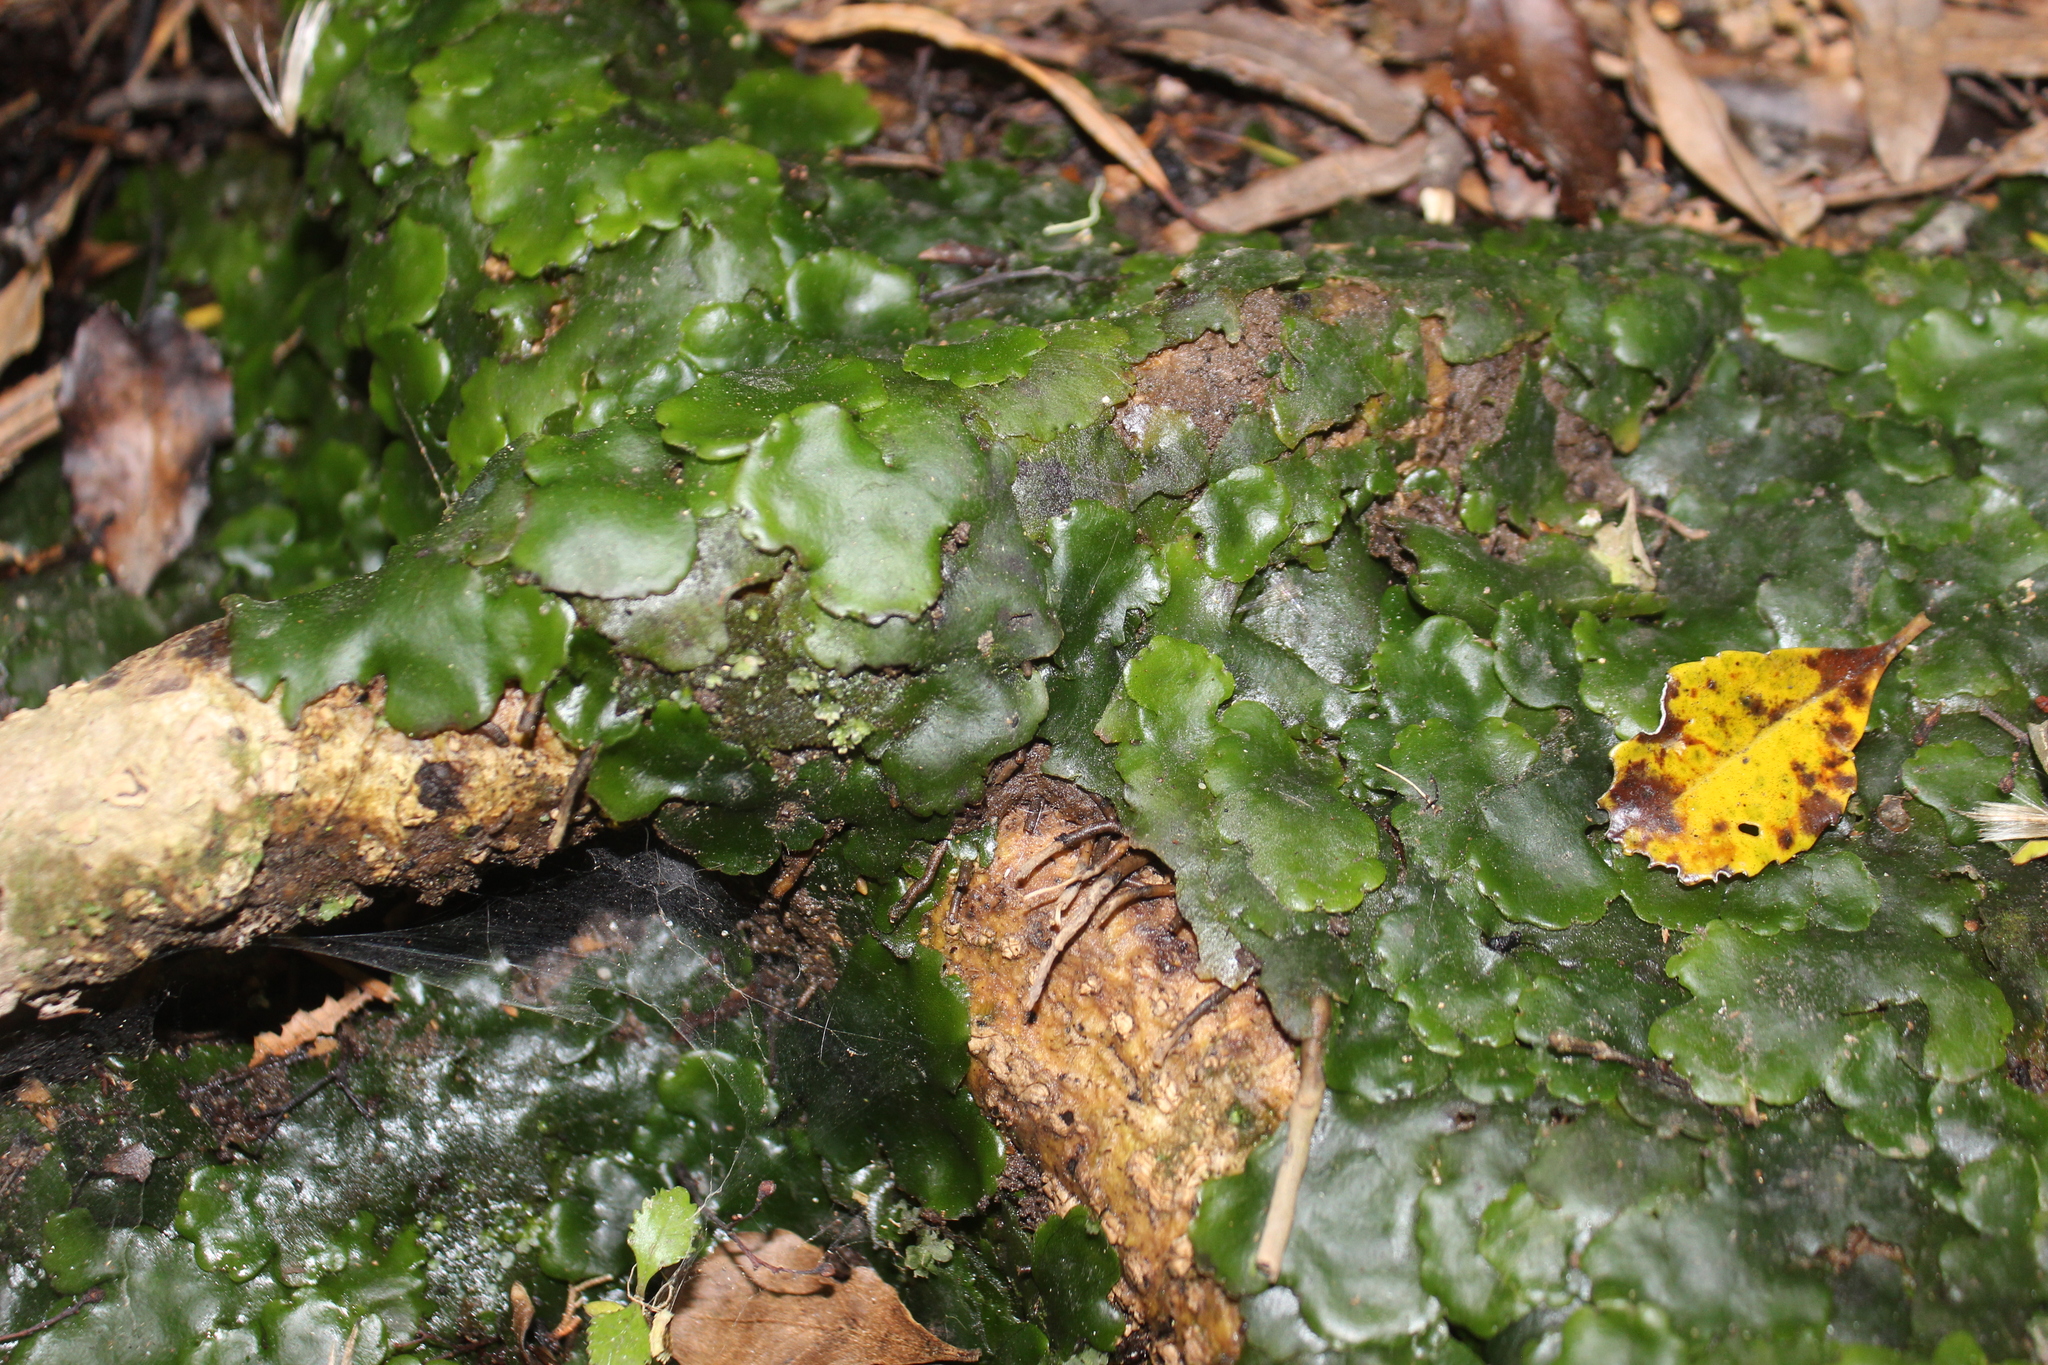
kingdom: Plantae
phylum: Marchantiophyta
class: Marchantiopsida
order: Marchantiales
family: Monocleaceae
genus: Monoclea
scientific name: Monoclea forsteri
